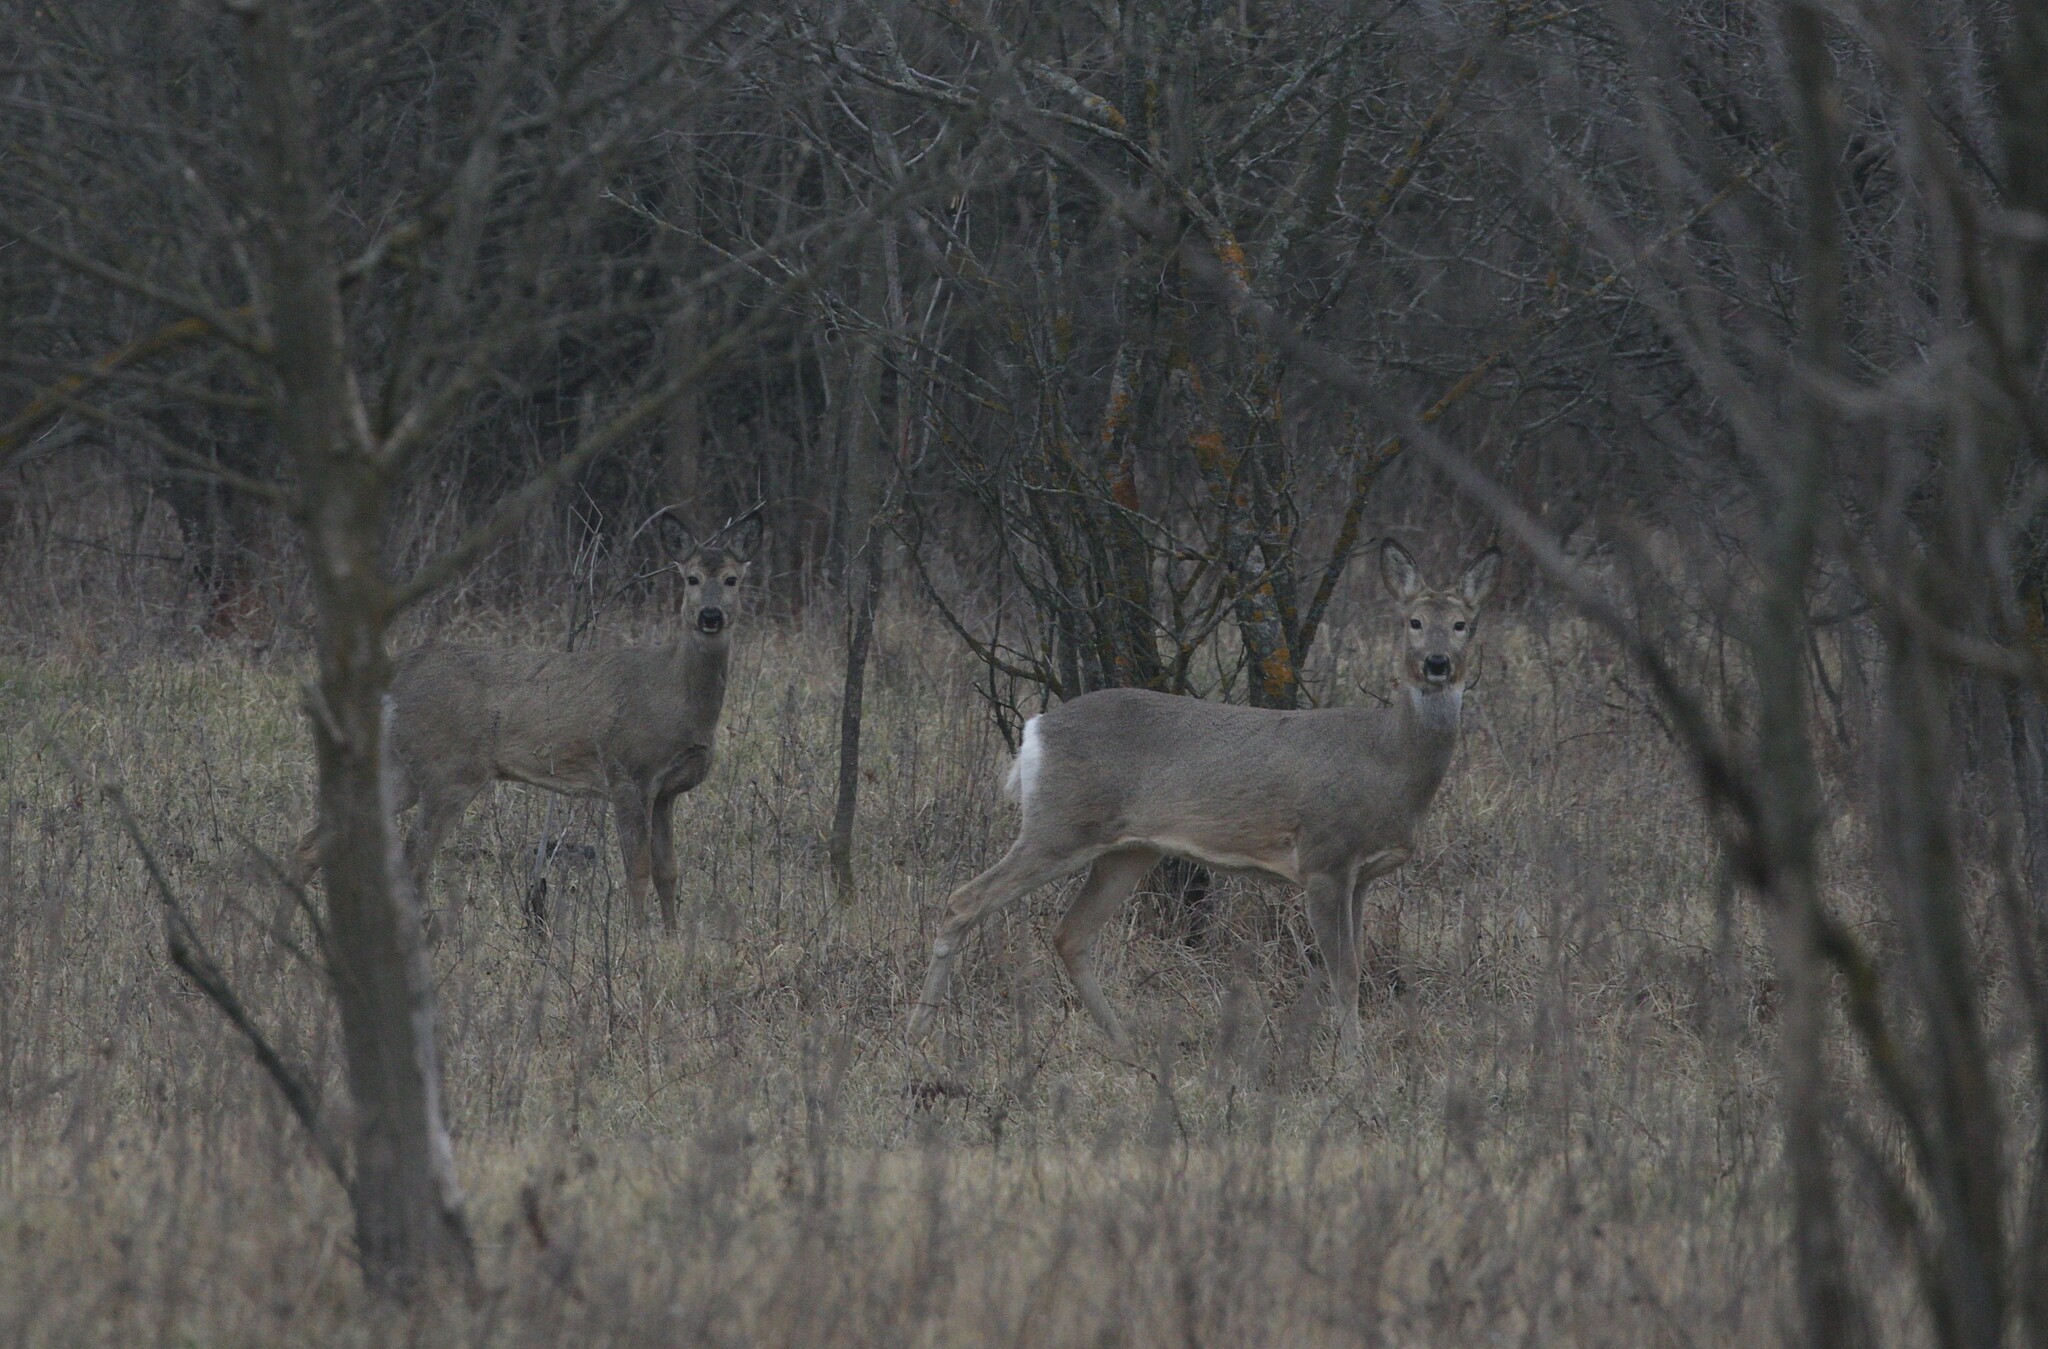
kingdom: Animalia
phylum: Chordata
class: Mammalia
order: Artiodactyla
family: Cervidae
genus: Capreolus
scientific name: Capreolus pygargus
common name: Siberian roe
